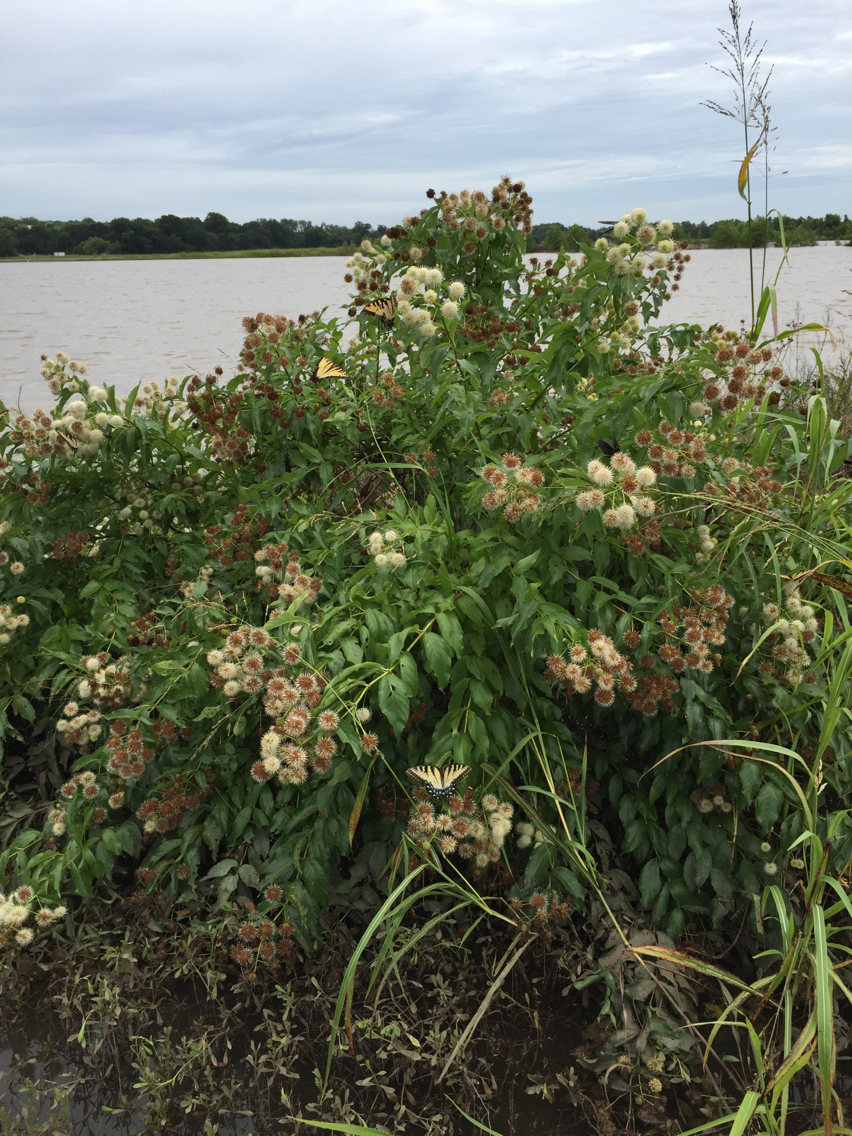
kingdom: Plantae
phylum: Tracheophyta
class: Magnoliopsida
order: Gentianales
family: Rubiaceae
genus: Cephalanthus
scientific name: Cephalanthus occidentalis
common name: Button-willow
